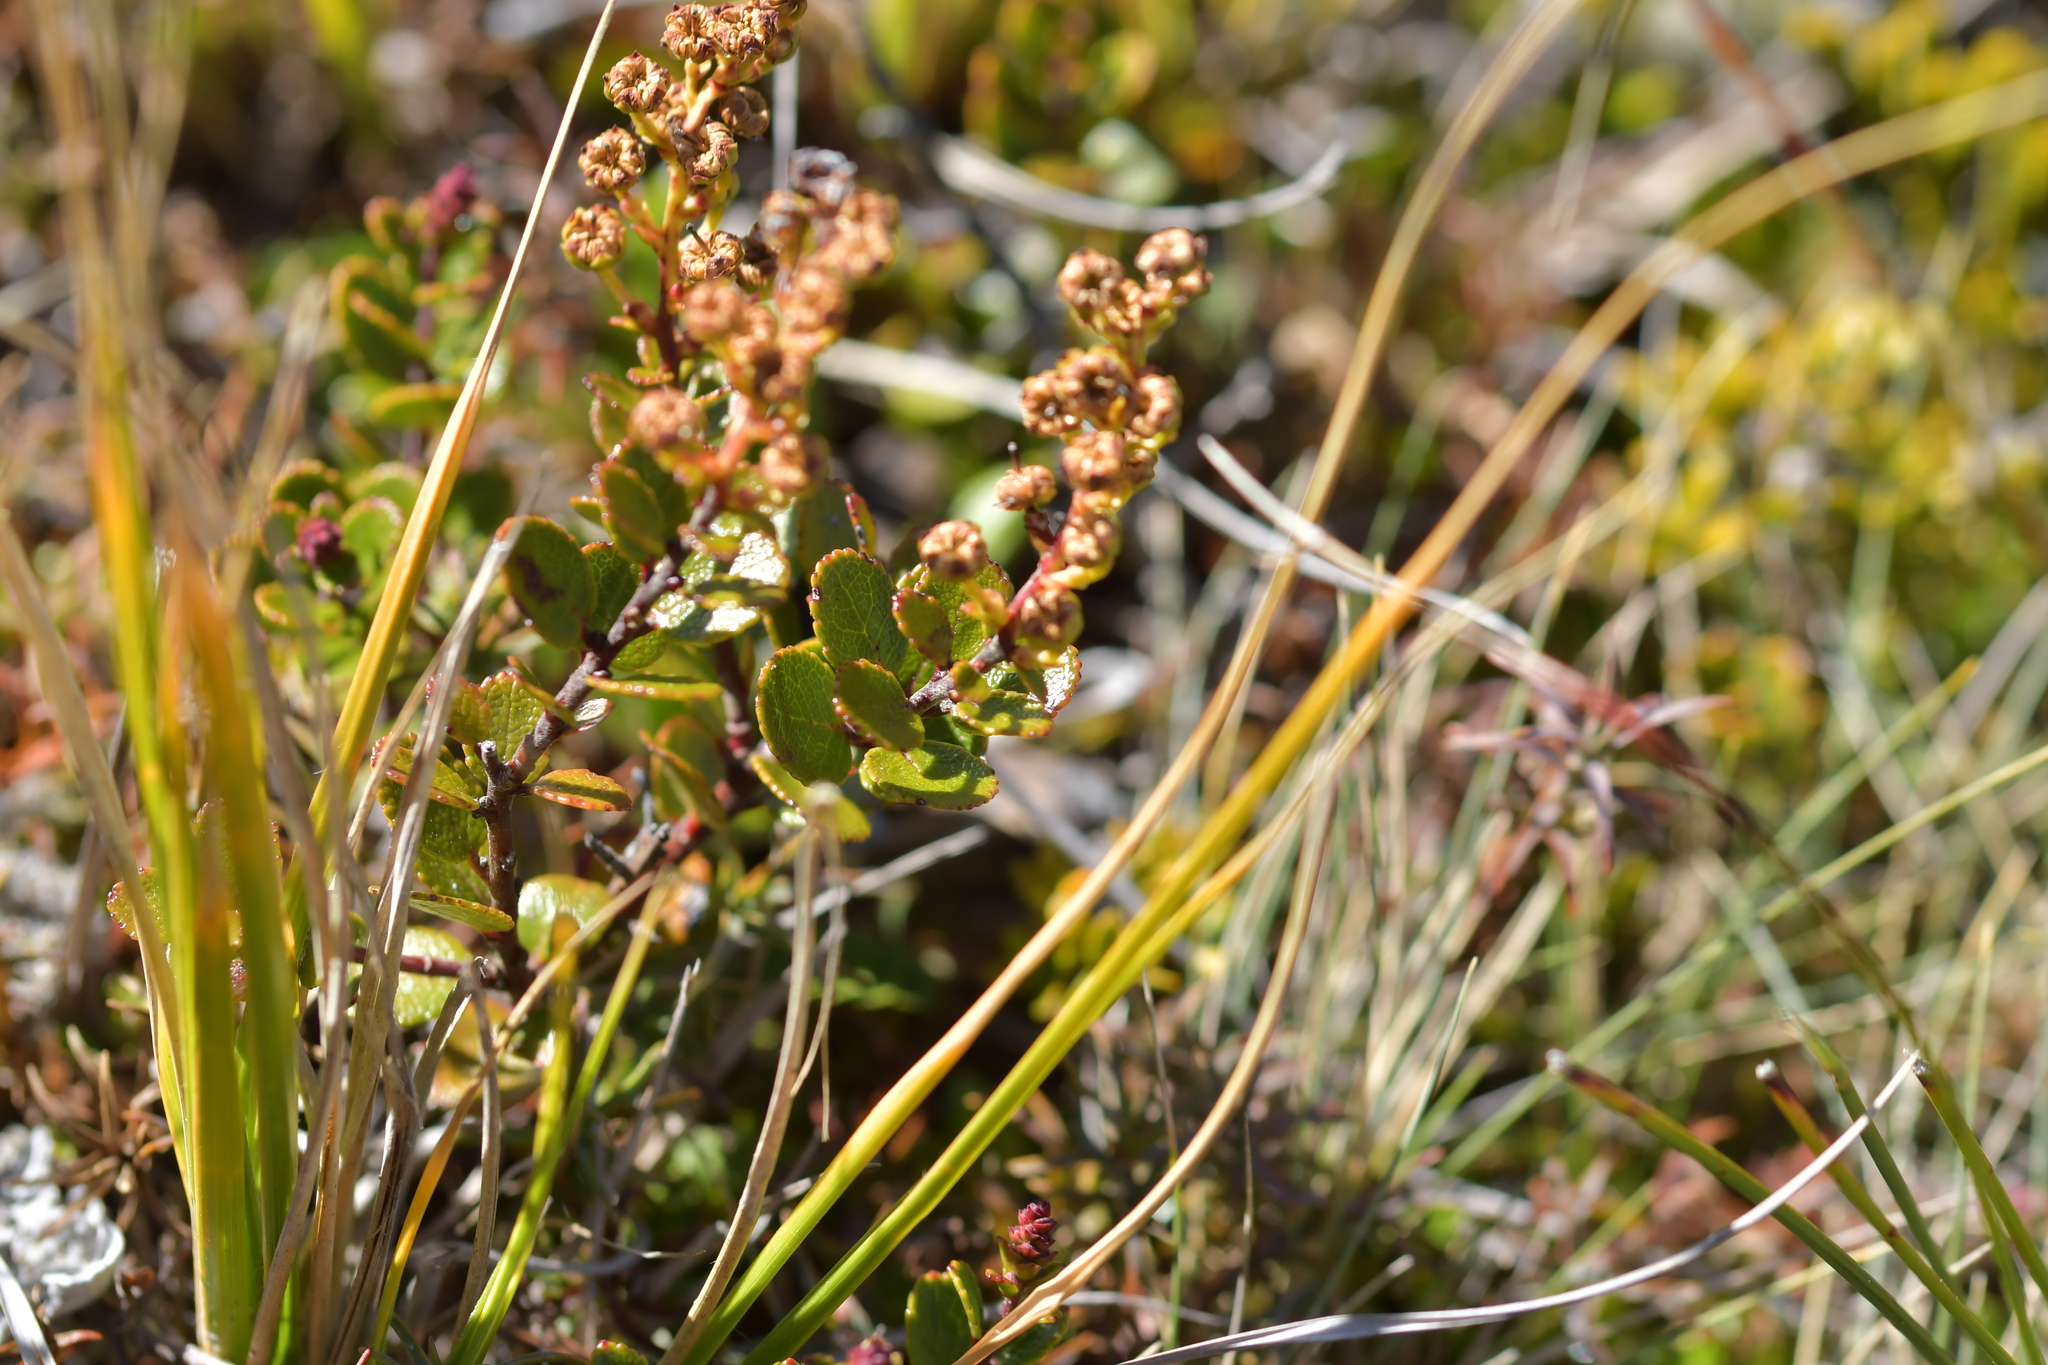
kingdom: Plantae
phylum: Tracheophyta
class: Magnoliopsida
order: Ericales
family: Ericaceae
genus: Gaultheria
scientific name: Gaultheria colensoi
